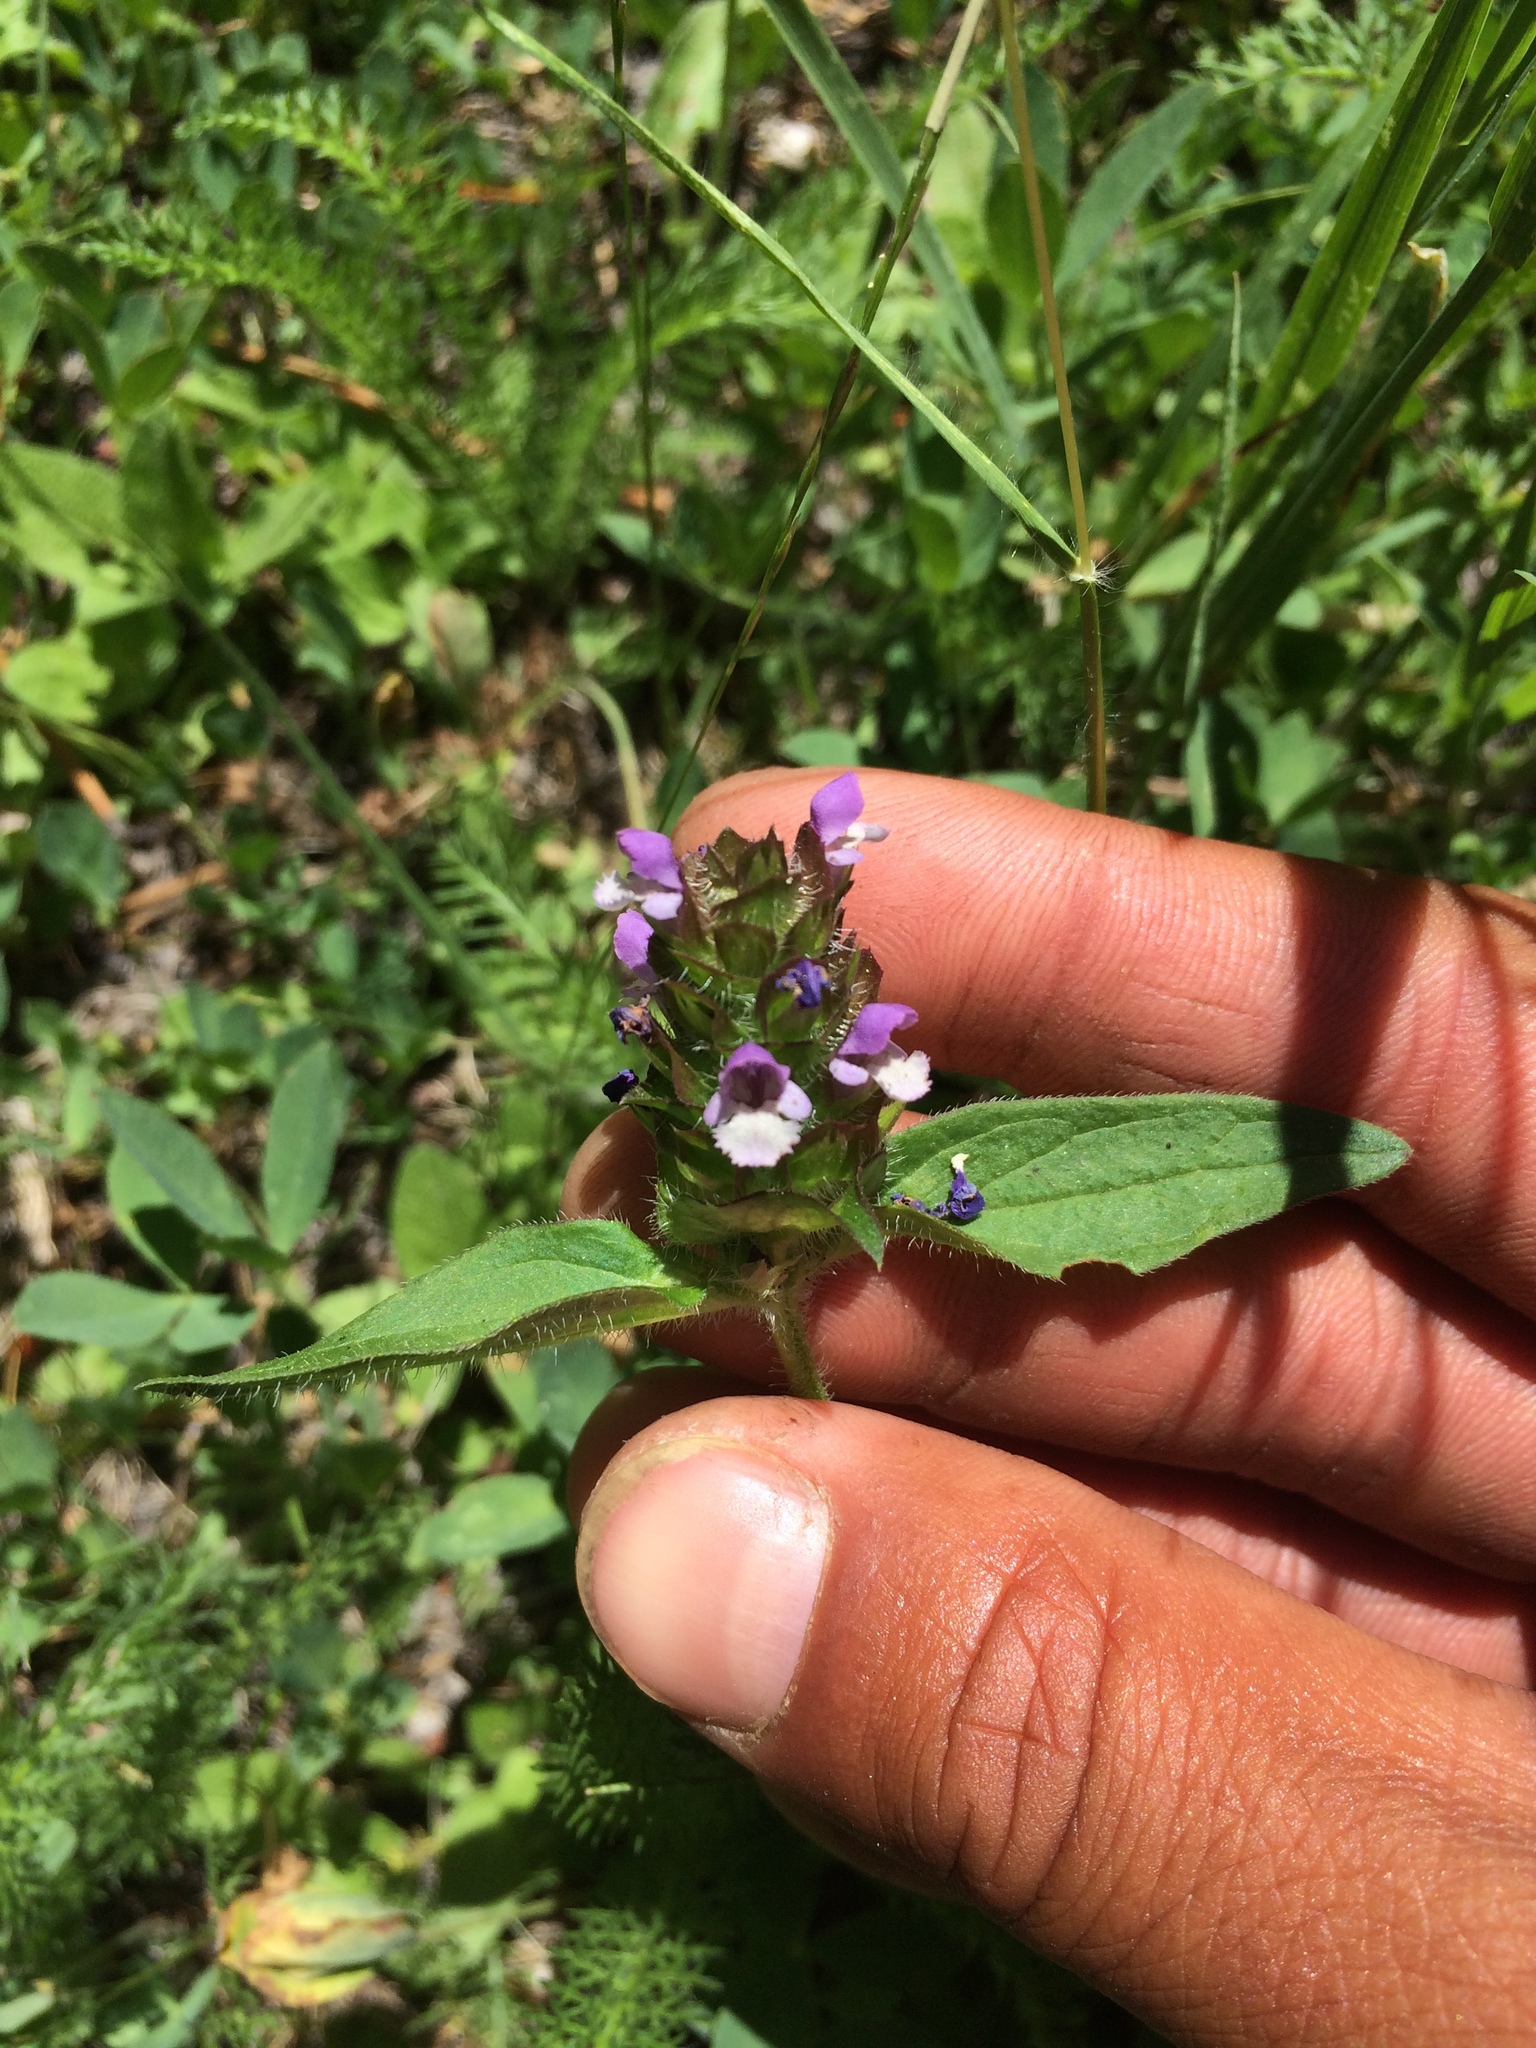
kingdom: Plantae
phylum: Tracheophyta
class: Magnoliopsida
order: Lamiales
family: Lamiaceae
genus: Prunella
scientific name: Prunella vulgaris
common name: Heal-all
